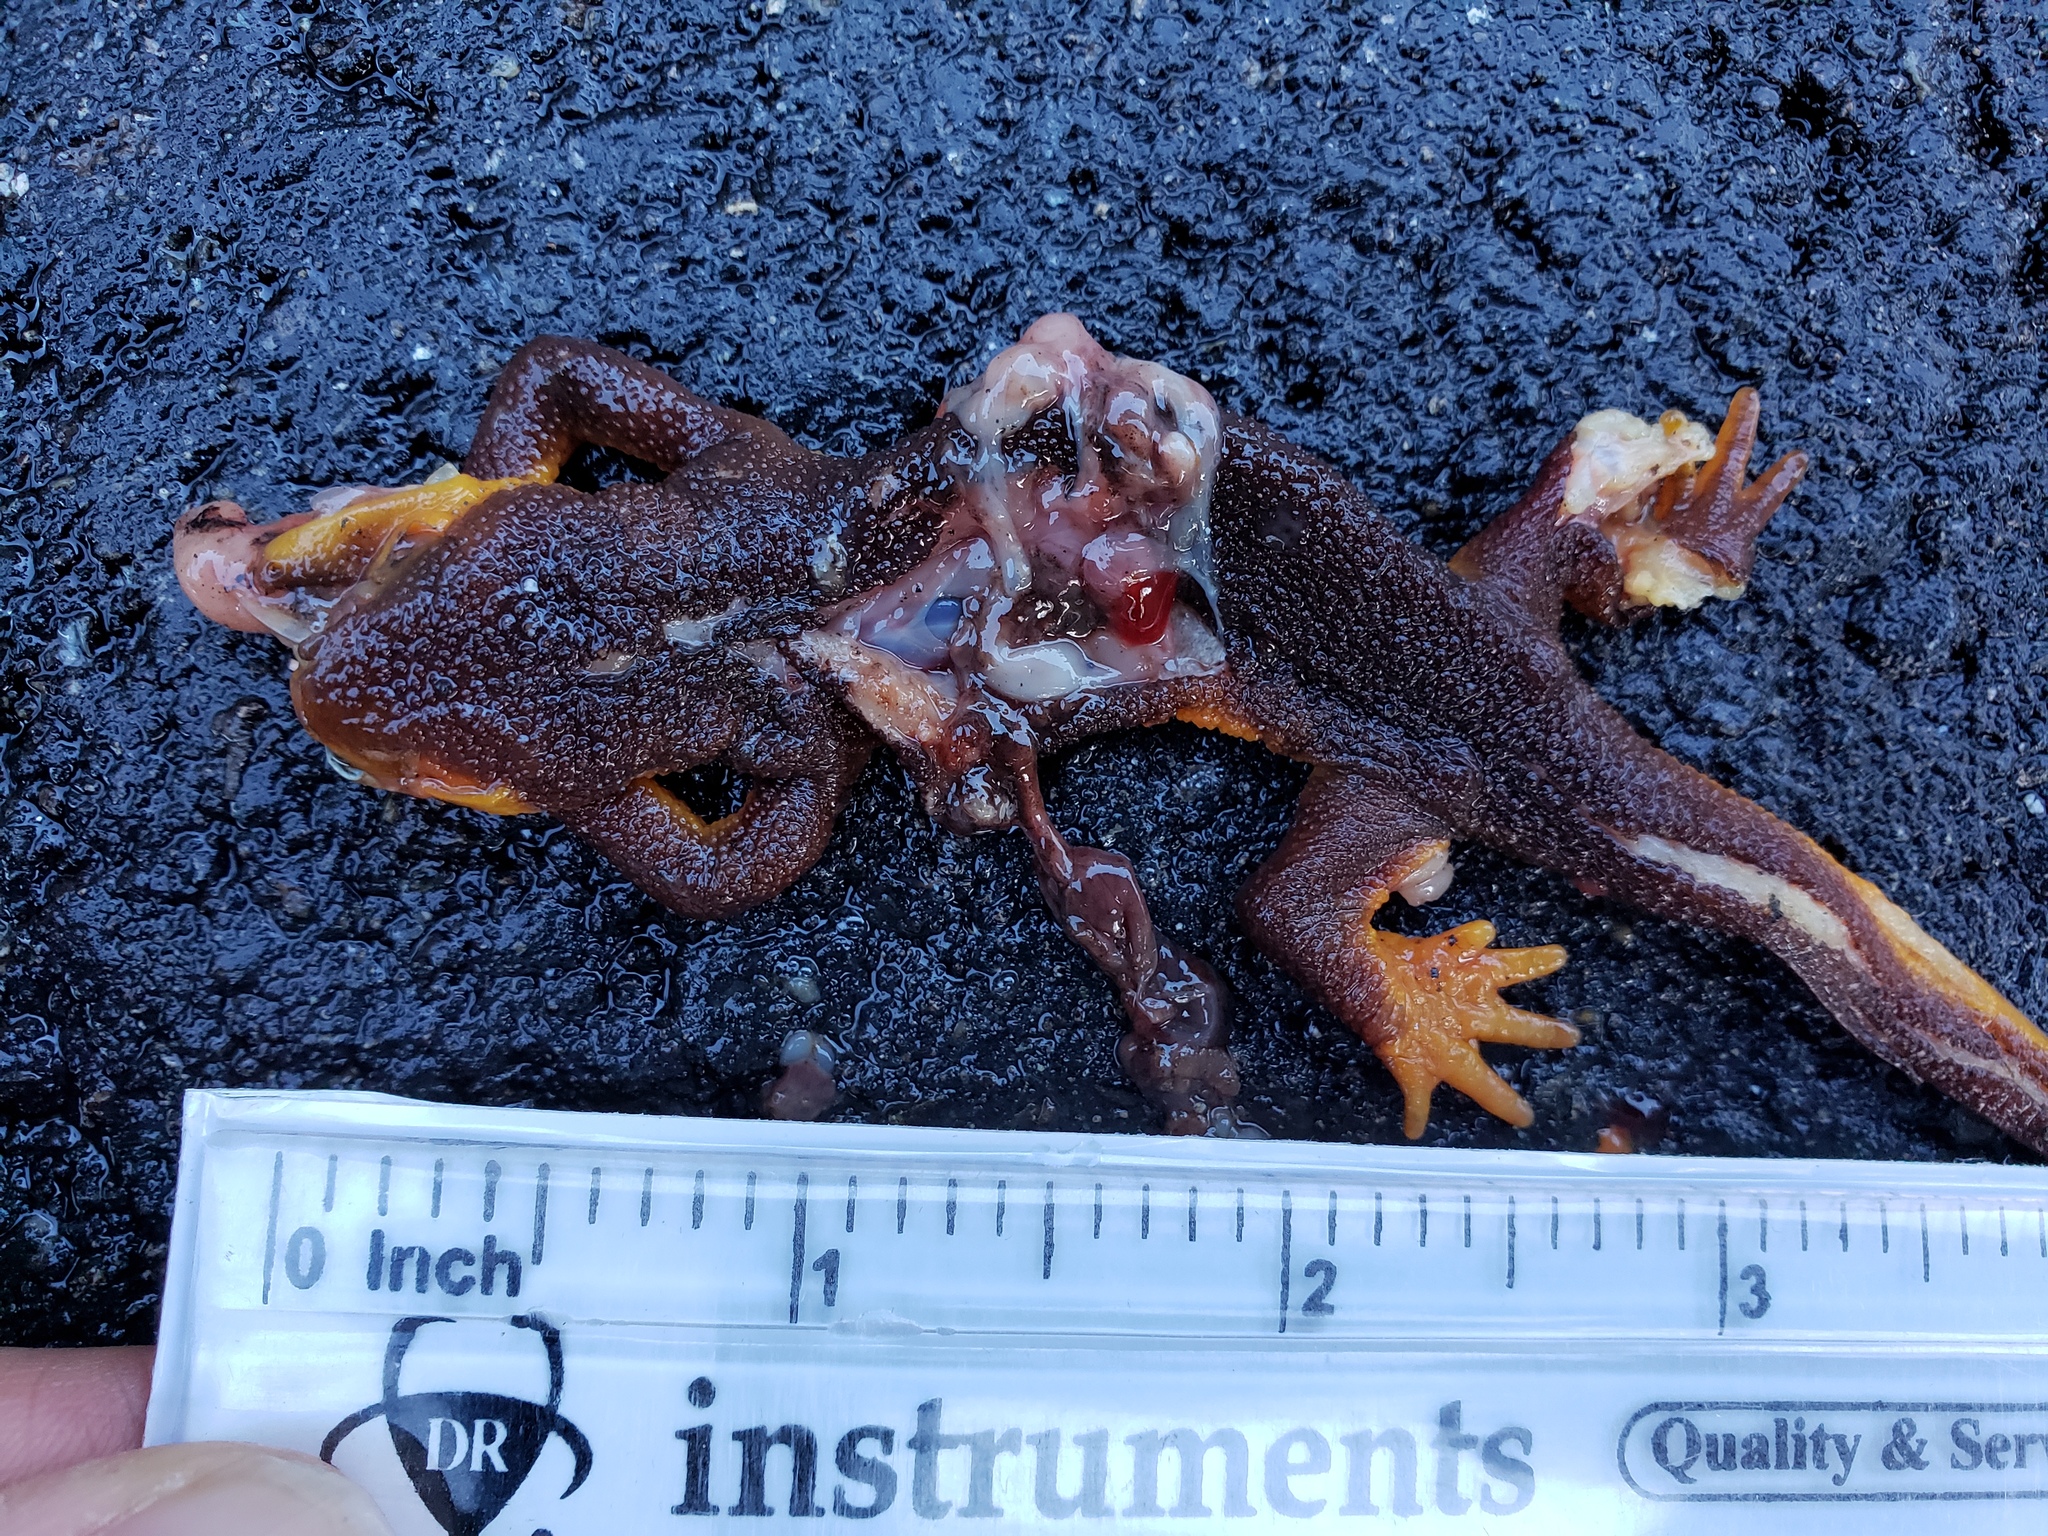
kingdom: Animalia
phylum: Chordata
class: Amphibia
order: Caudata
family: Salamandridae
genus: Taricha
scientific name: Taricha
